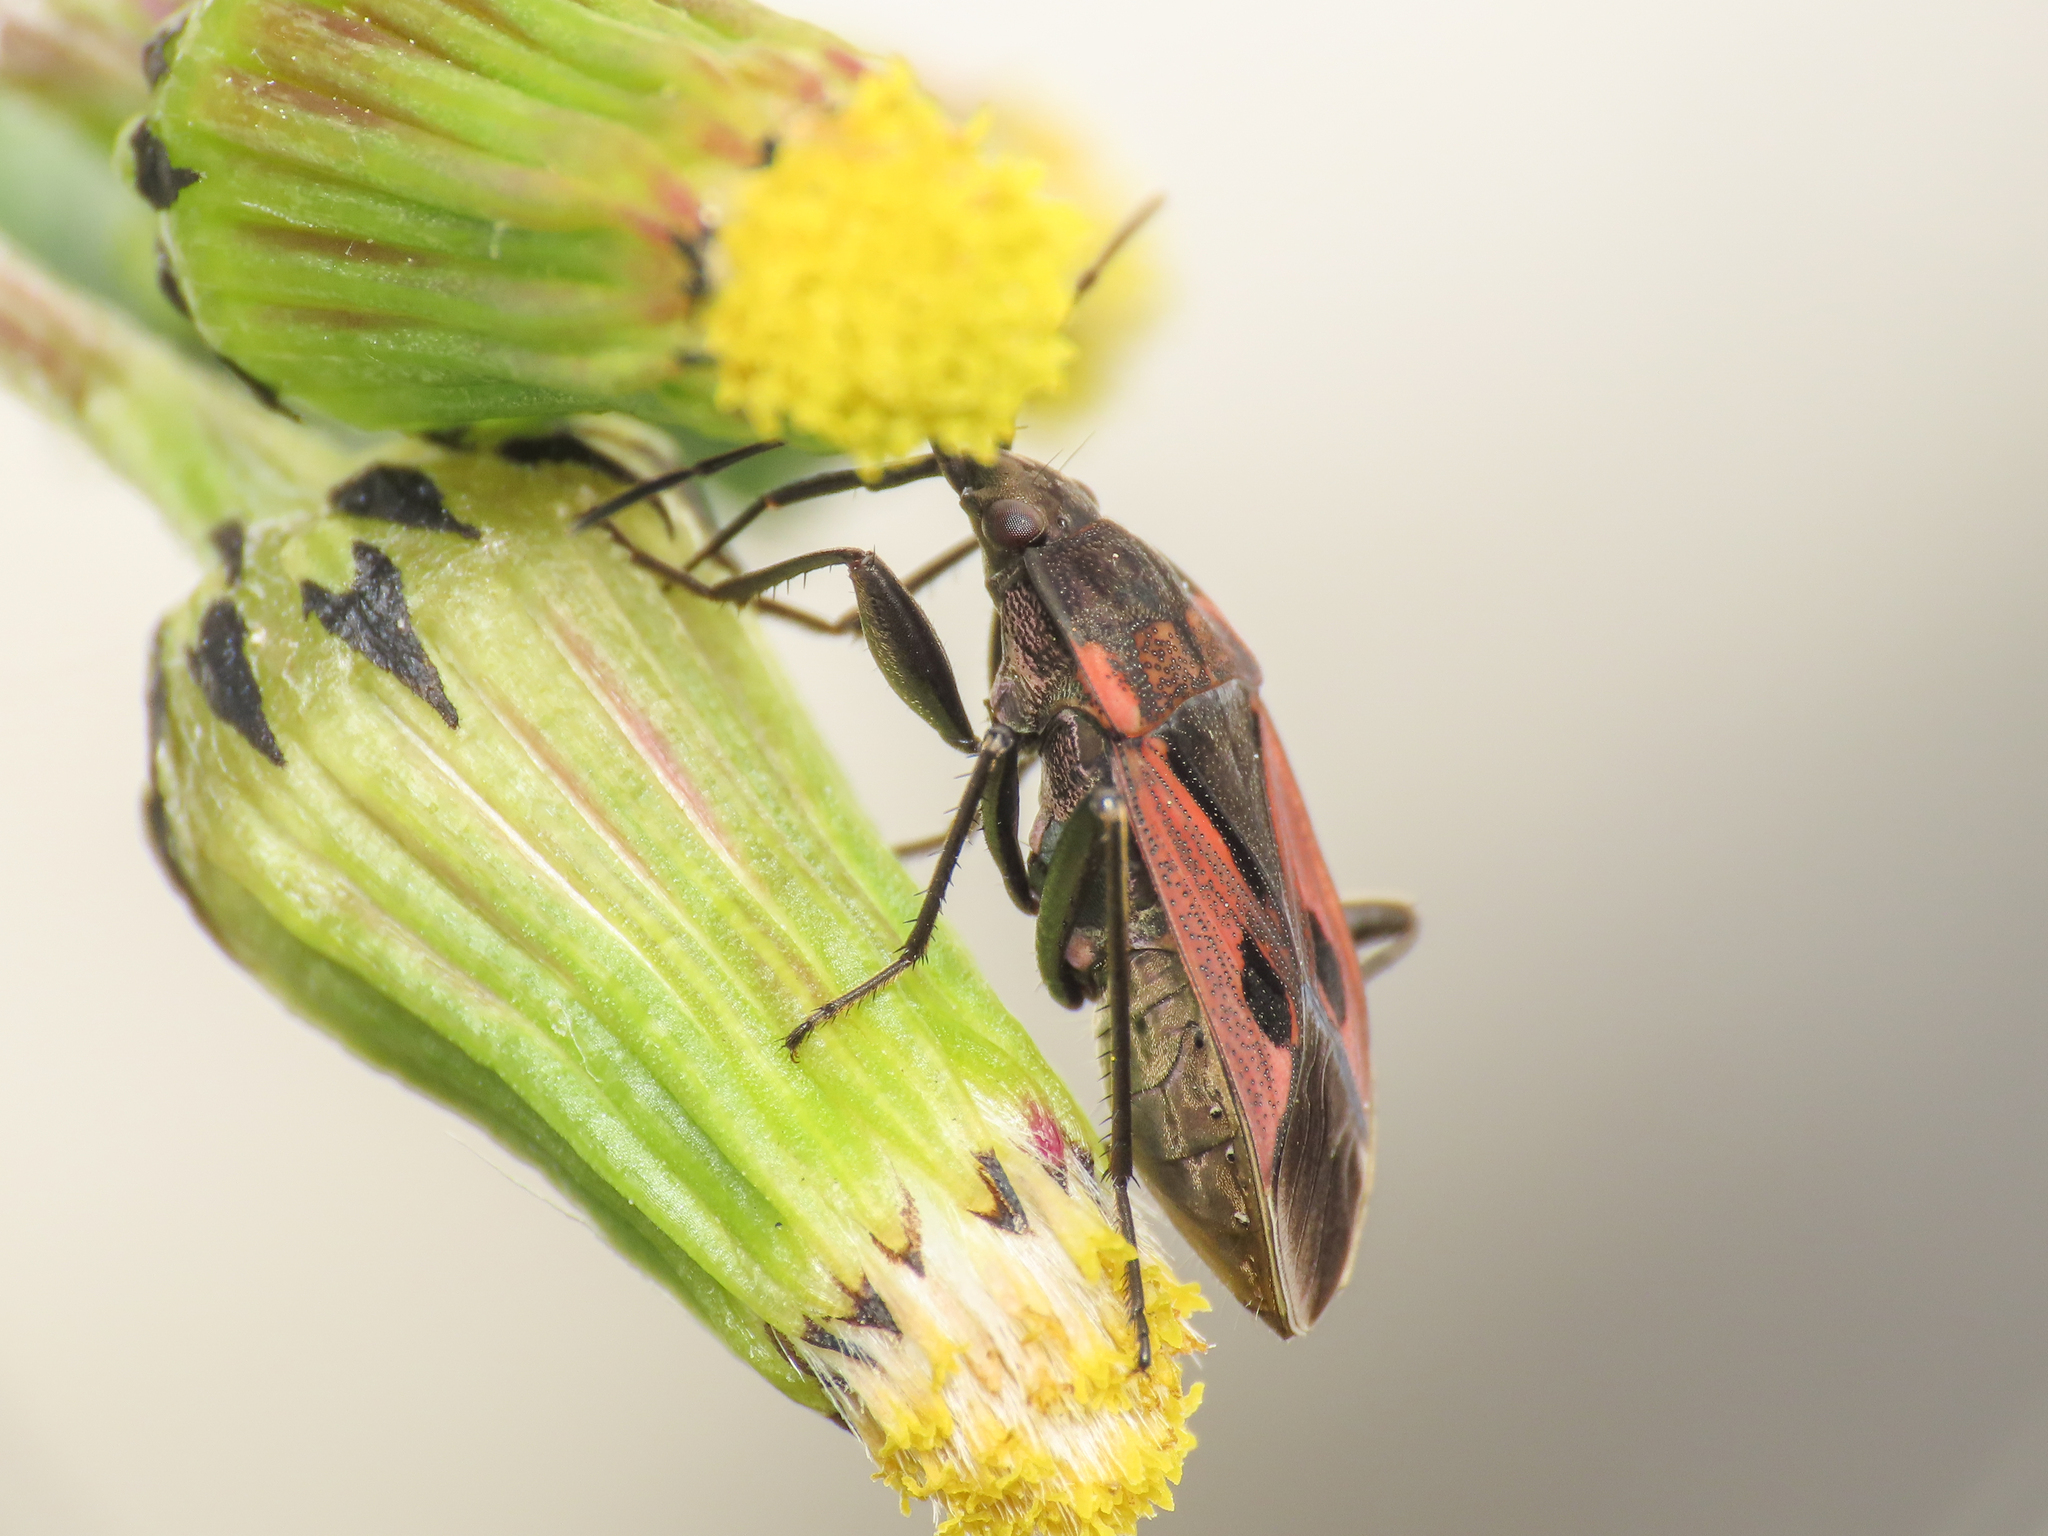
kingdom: Animalia
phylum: Arthropoda
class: Insecta
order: Hemiptera
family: Rhyparochromidae
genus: Rhyparochromus
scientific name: Rhyparochromus sanguineus
